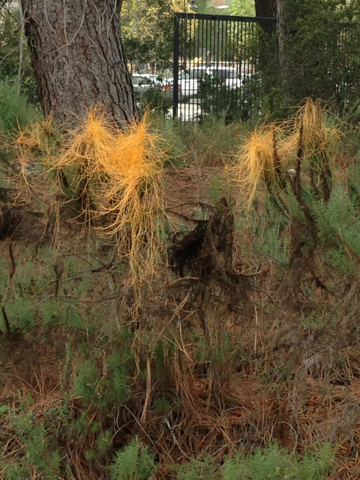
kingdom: Plantae
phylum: Tracheophyta
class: Magnoliopsida
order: Solanales
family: Convolvulaceae
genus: Cuscuta
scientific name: Cuscuta californica
